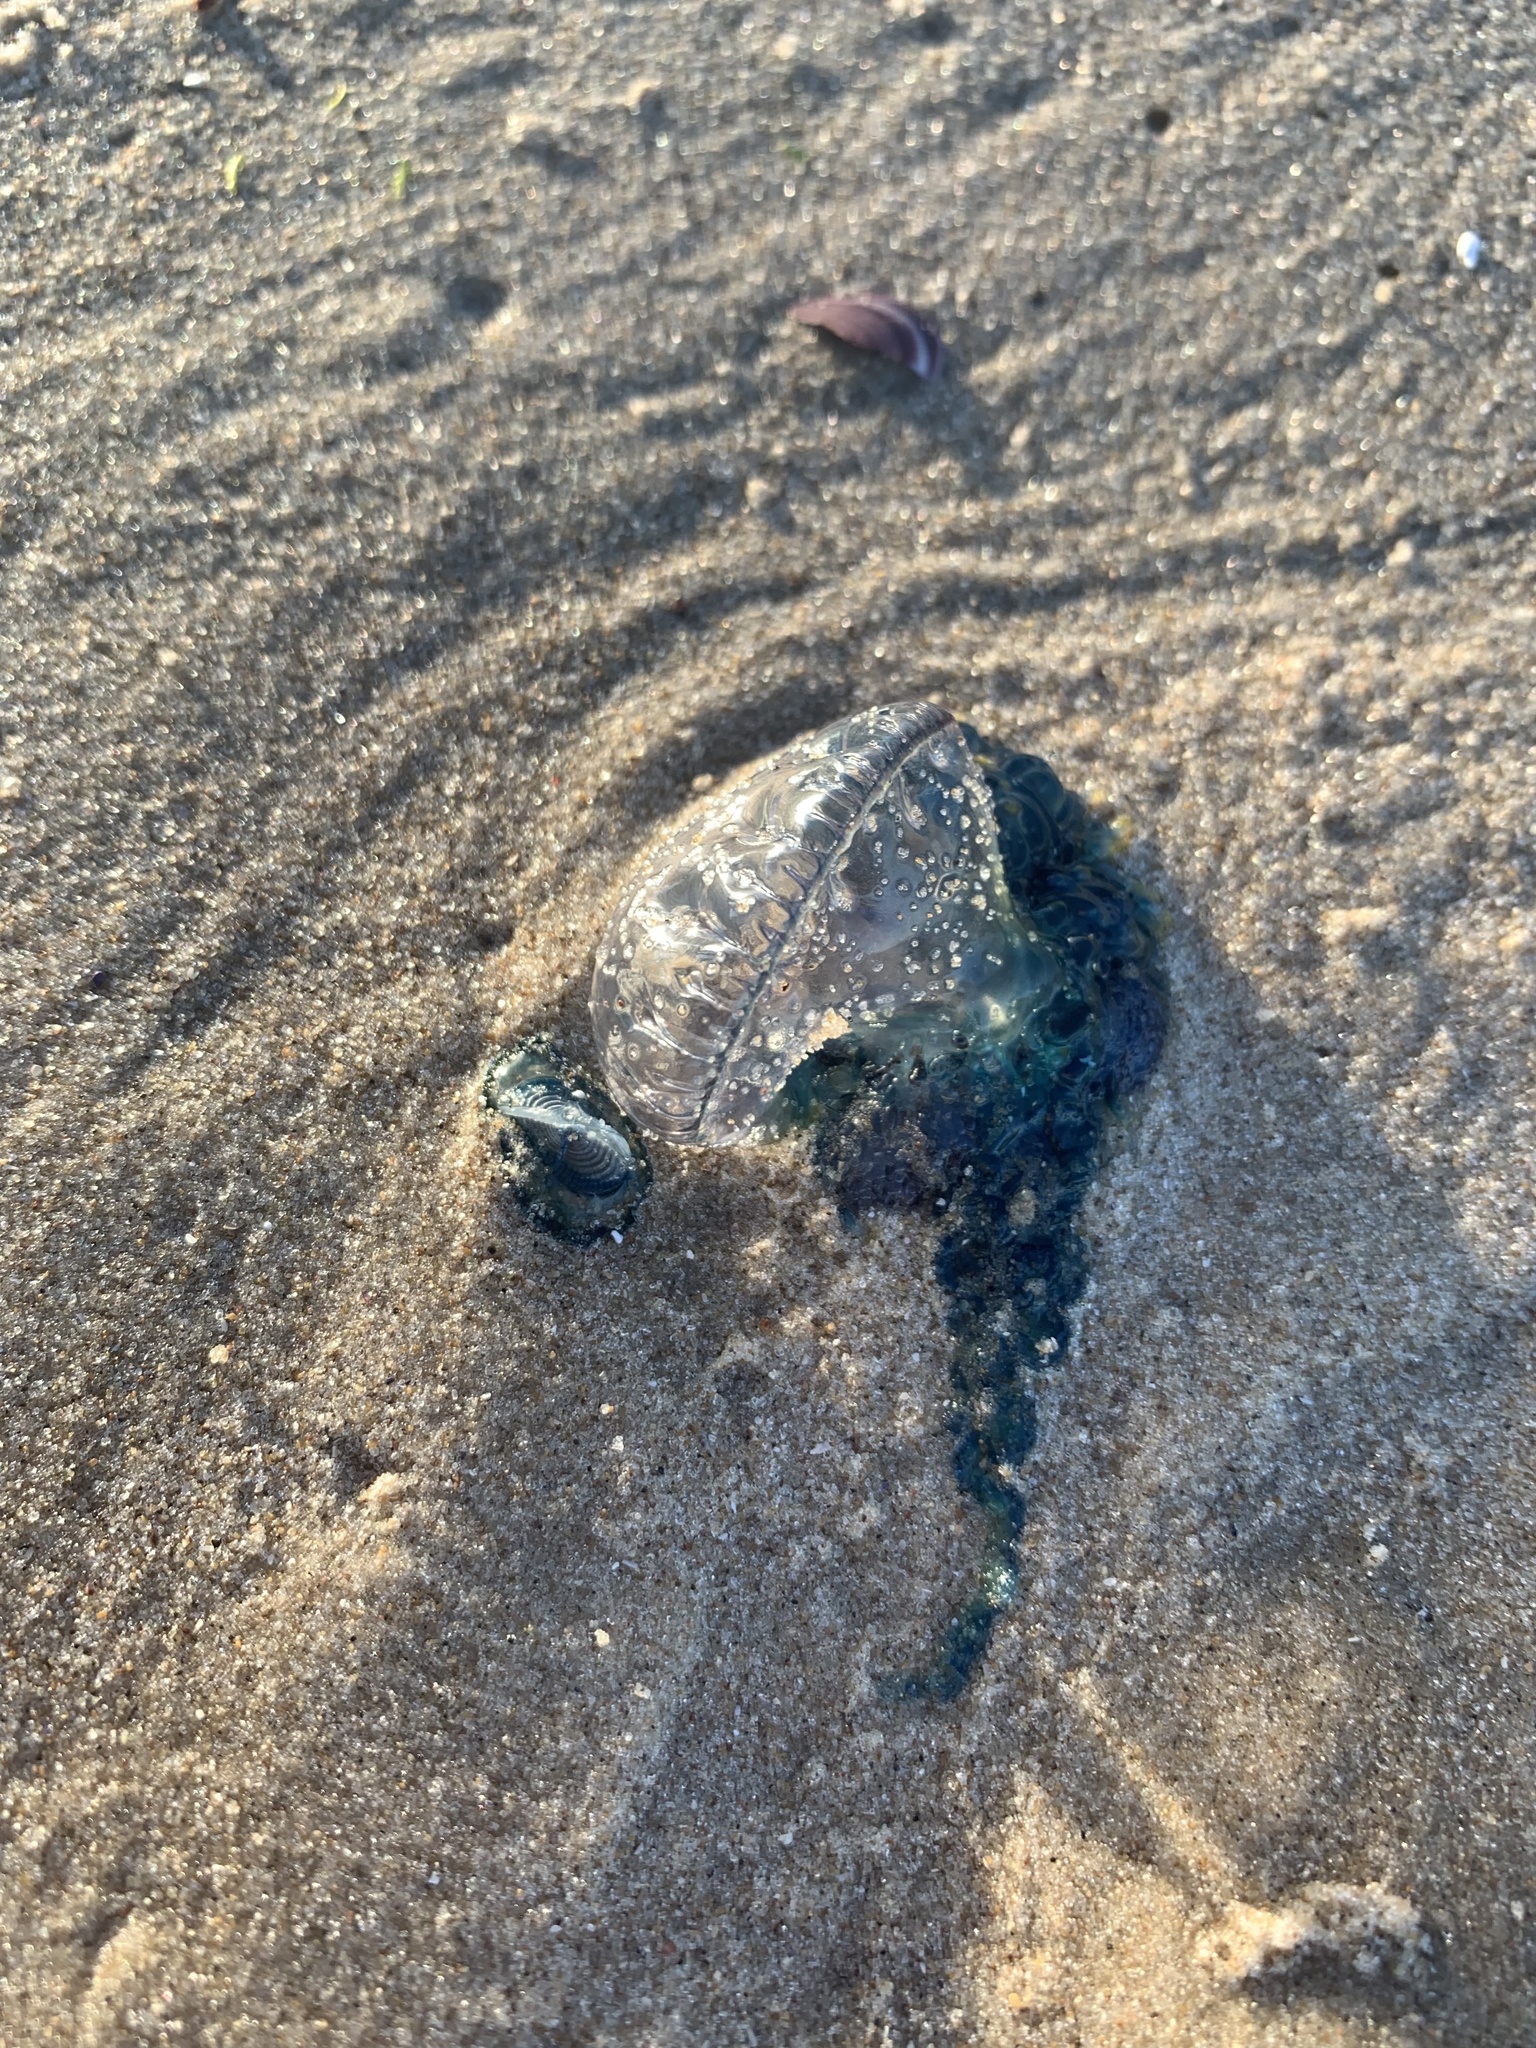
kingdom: Animalia
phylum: Cnidaria
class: Hydrozoa
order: Siphonophorae
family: Physaliidae
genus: Physalia
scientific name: Physalia physalis
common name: Portuguese man-of-war
